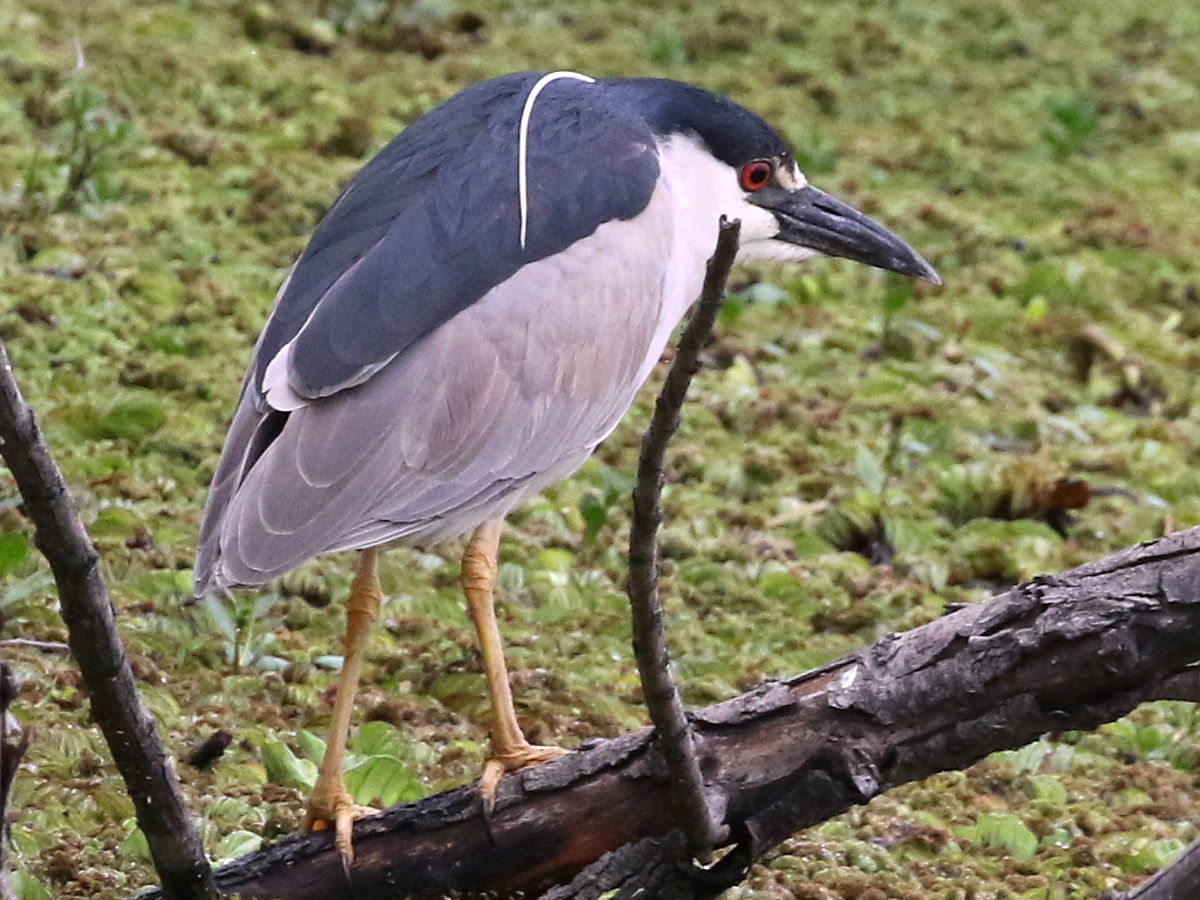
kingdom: Animalia
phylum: Chordata
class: Aves
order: Pelecaniformes
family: Ardeidae
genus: Nycticorax
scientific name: Nycticorax nycticorax
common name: Black-crowned night heron
